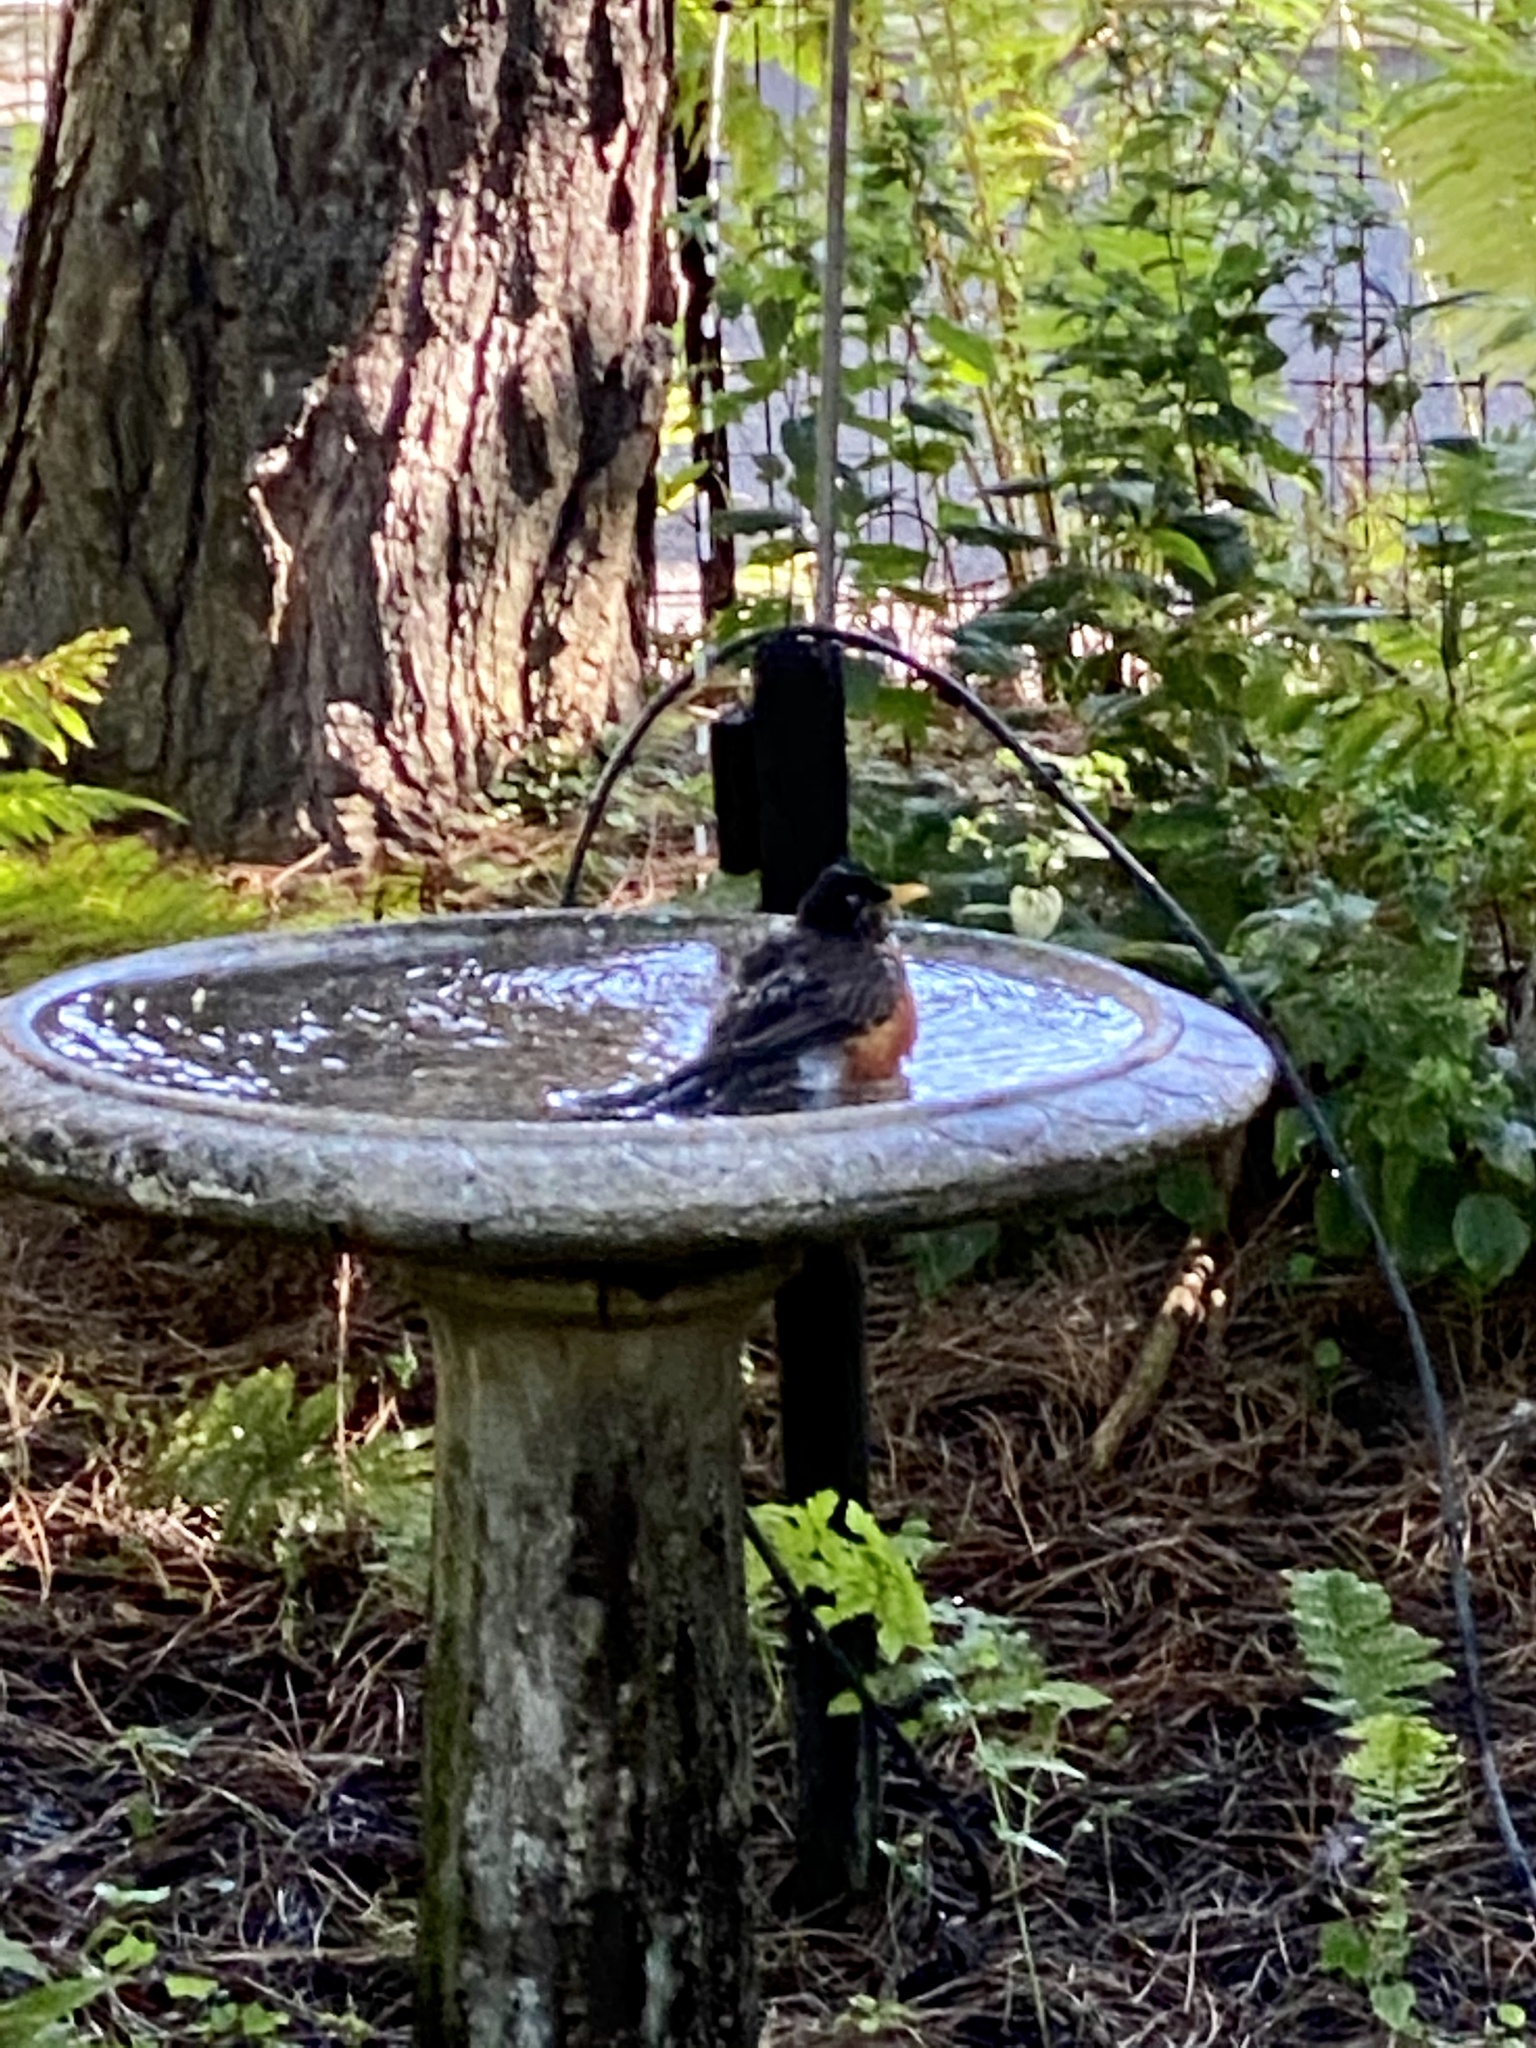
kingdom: Animalia
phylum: Chordata
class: Aves
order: Passeriformes
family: Turdidae
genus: Turdus
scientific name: Turdus migratorius
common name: American robin
